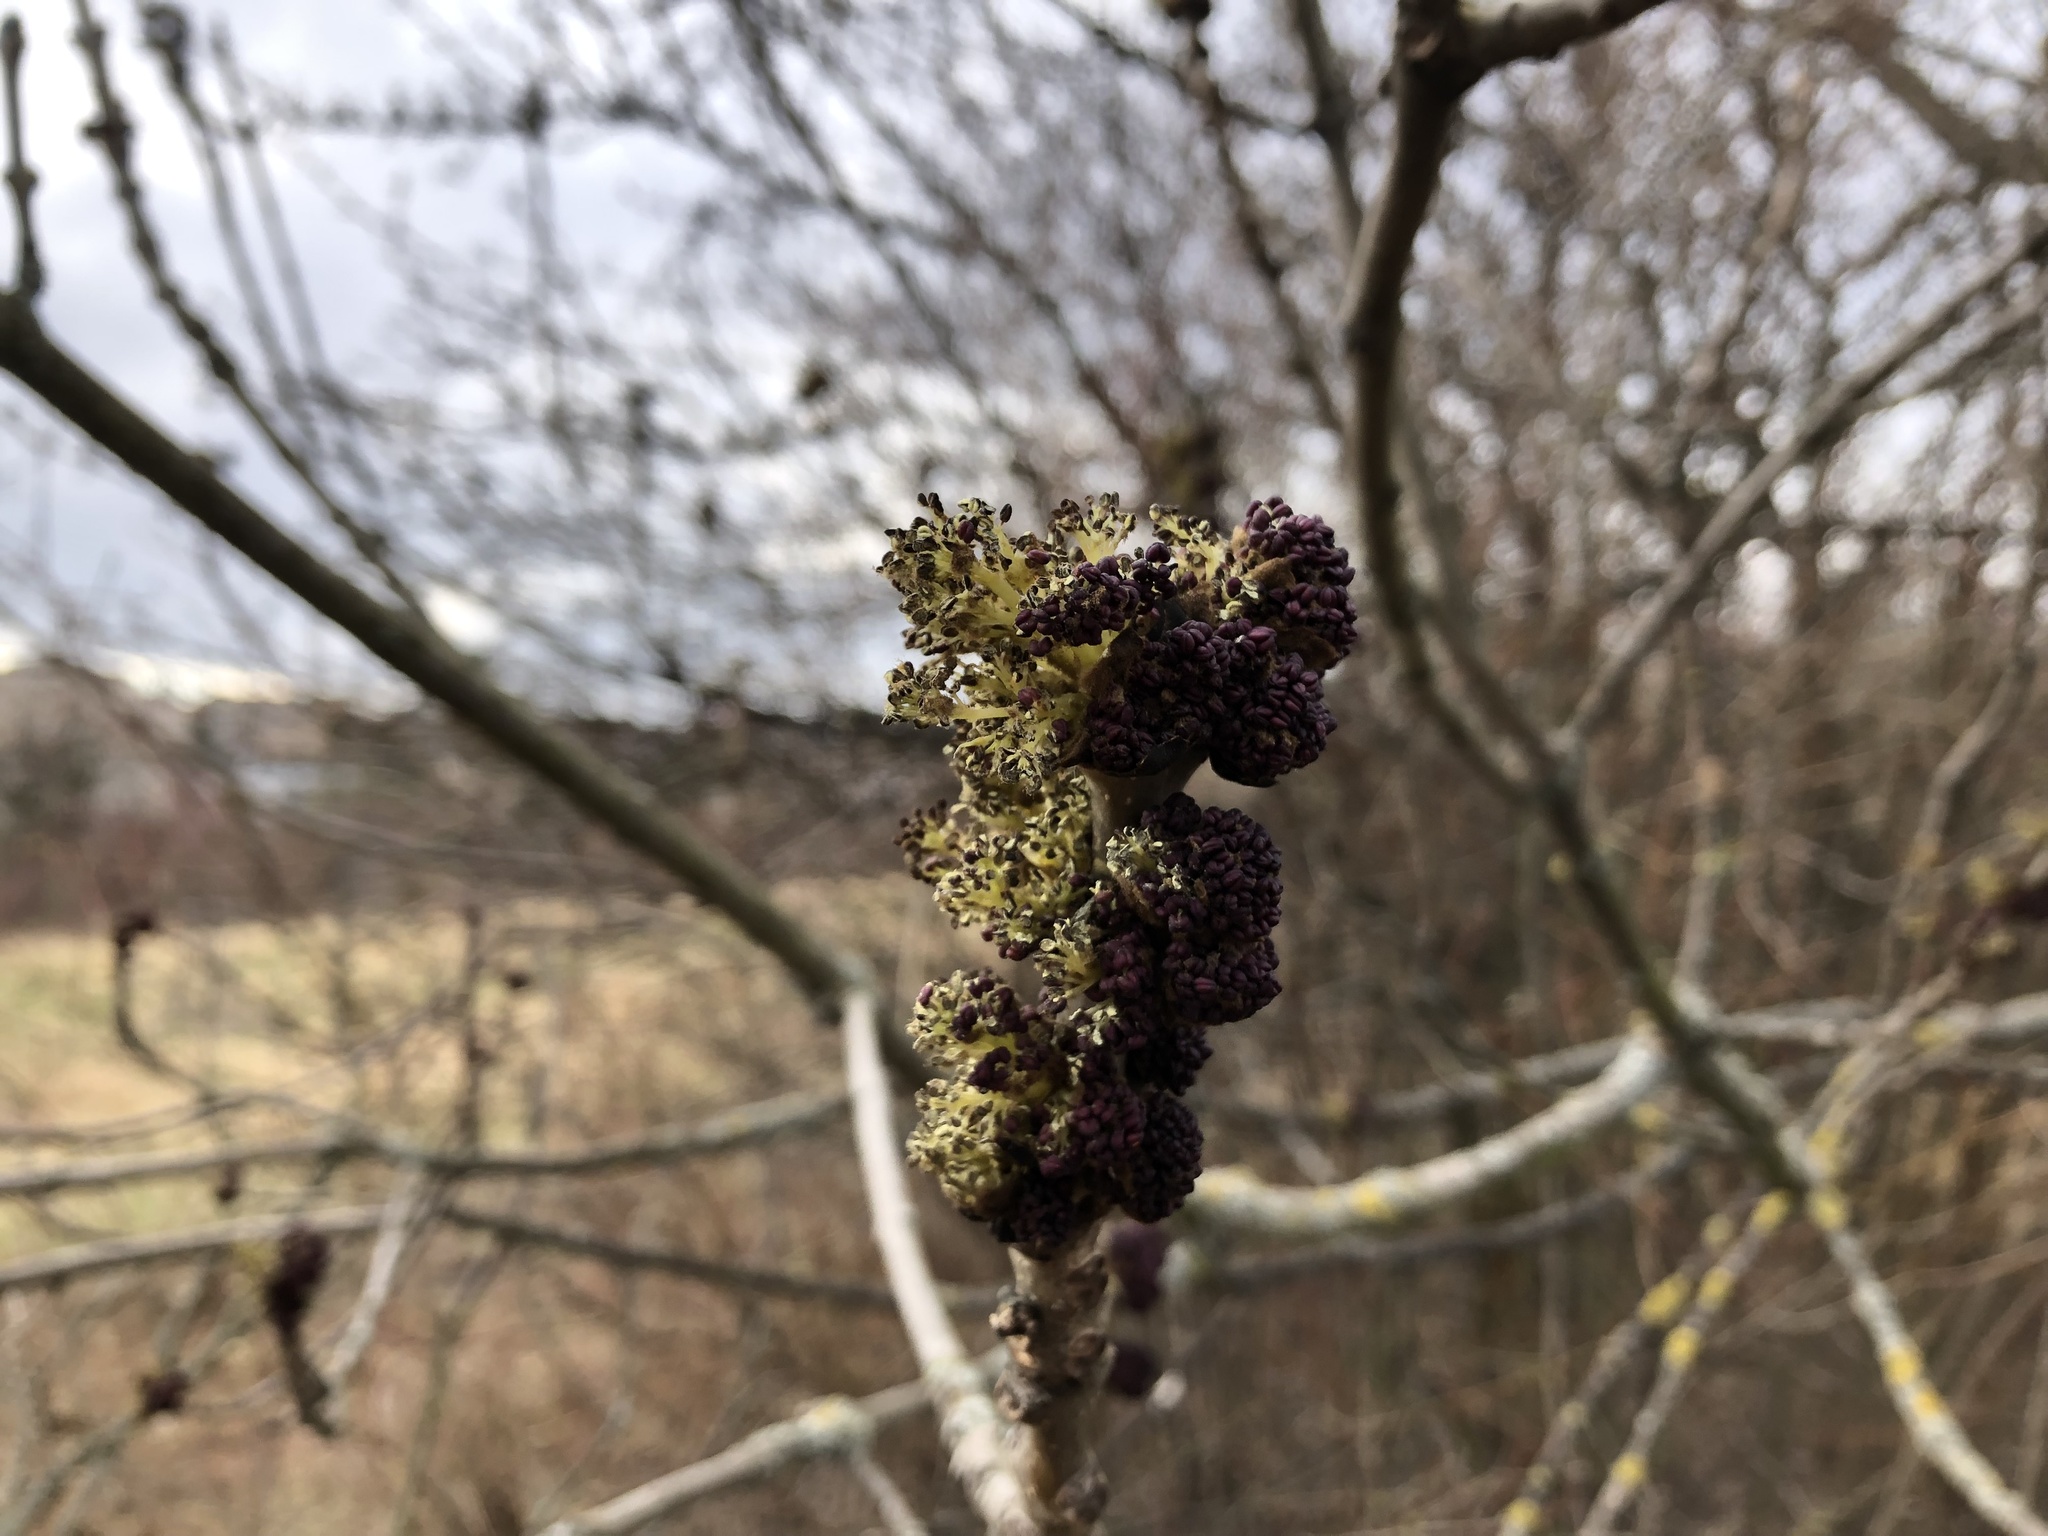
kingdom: Plantae
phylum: Tracheophyta
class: Magnoliopsida
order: Lamiales
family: Oleaceae
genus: Fraxinus
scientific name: Fraxinus excelsior
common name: European ash
